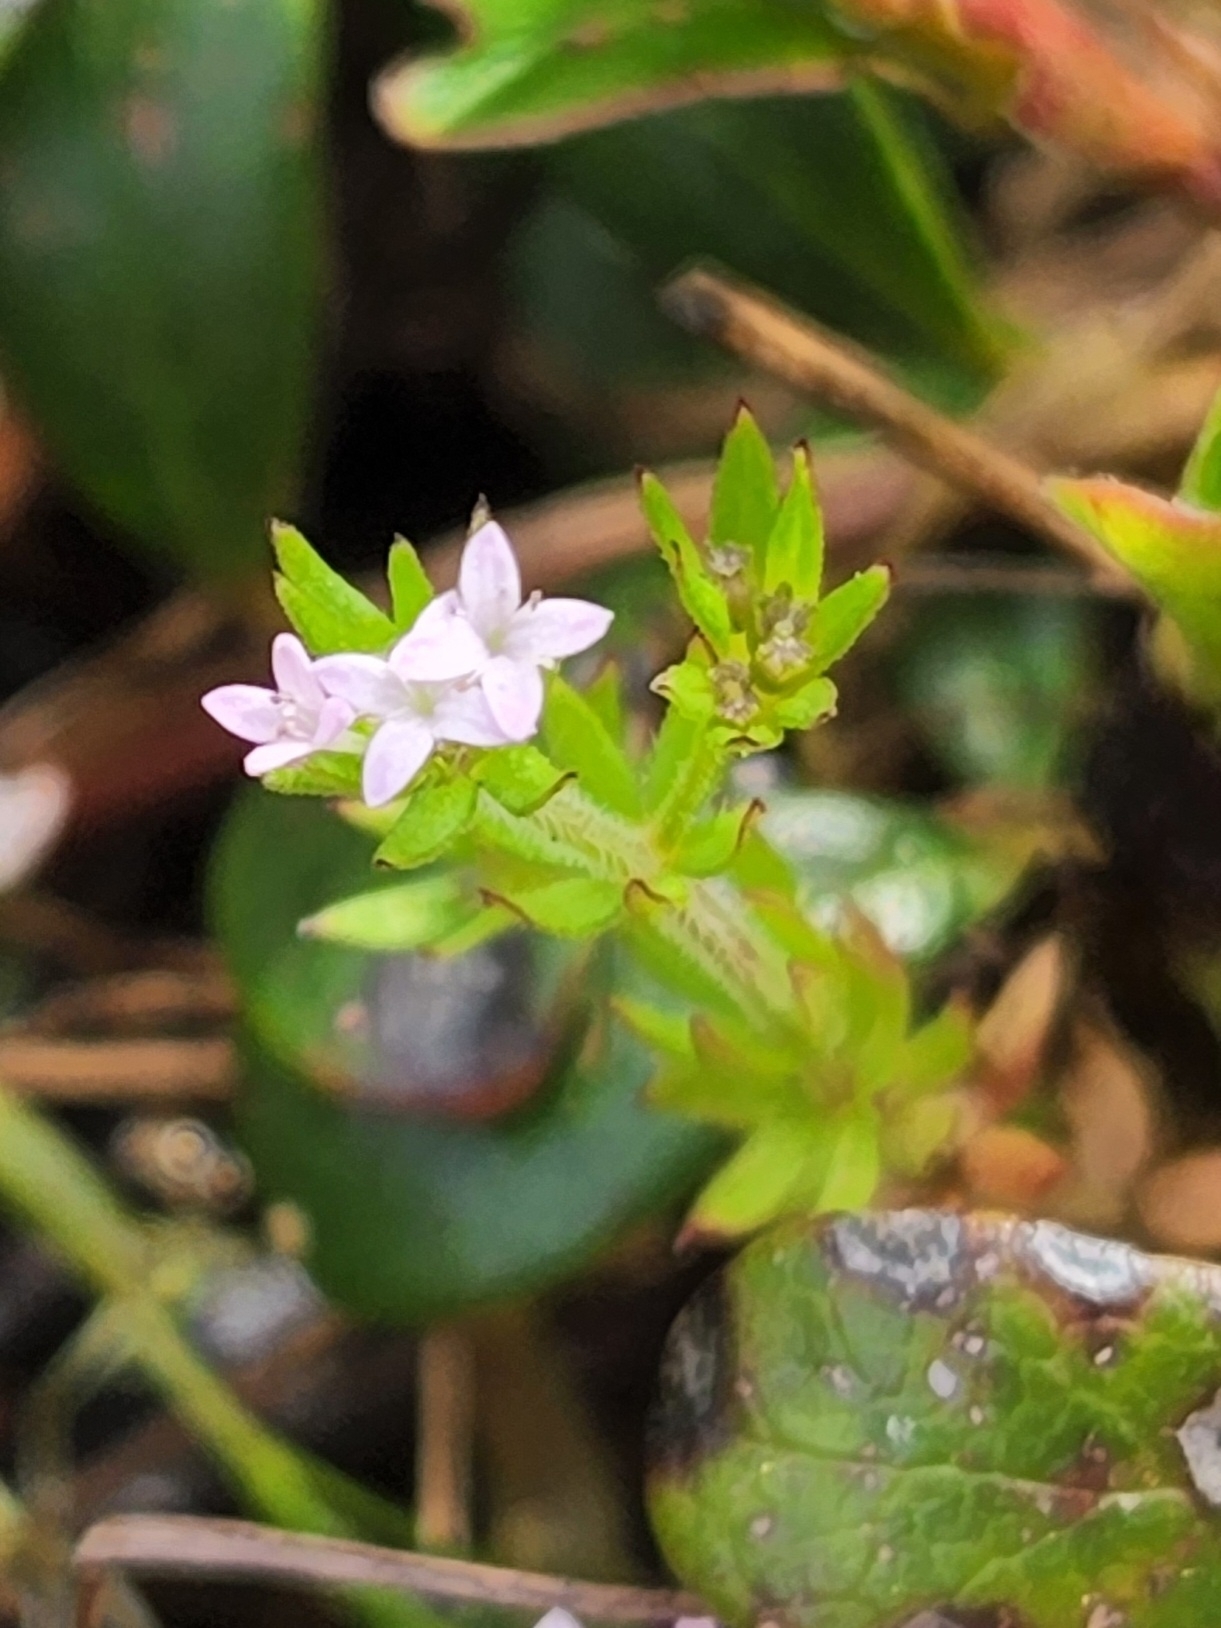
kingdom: Plantae
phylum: Tracheophyta
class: Magnoliopsida
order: Gentianales
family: Rubiaceae
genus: Sherardia
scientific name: Sherardia arvensis
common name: Field madder
